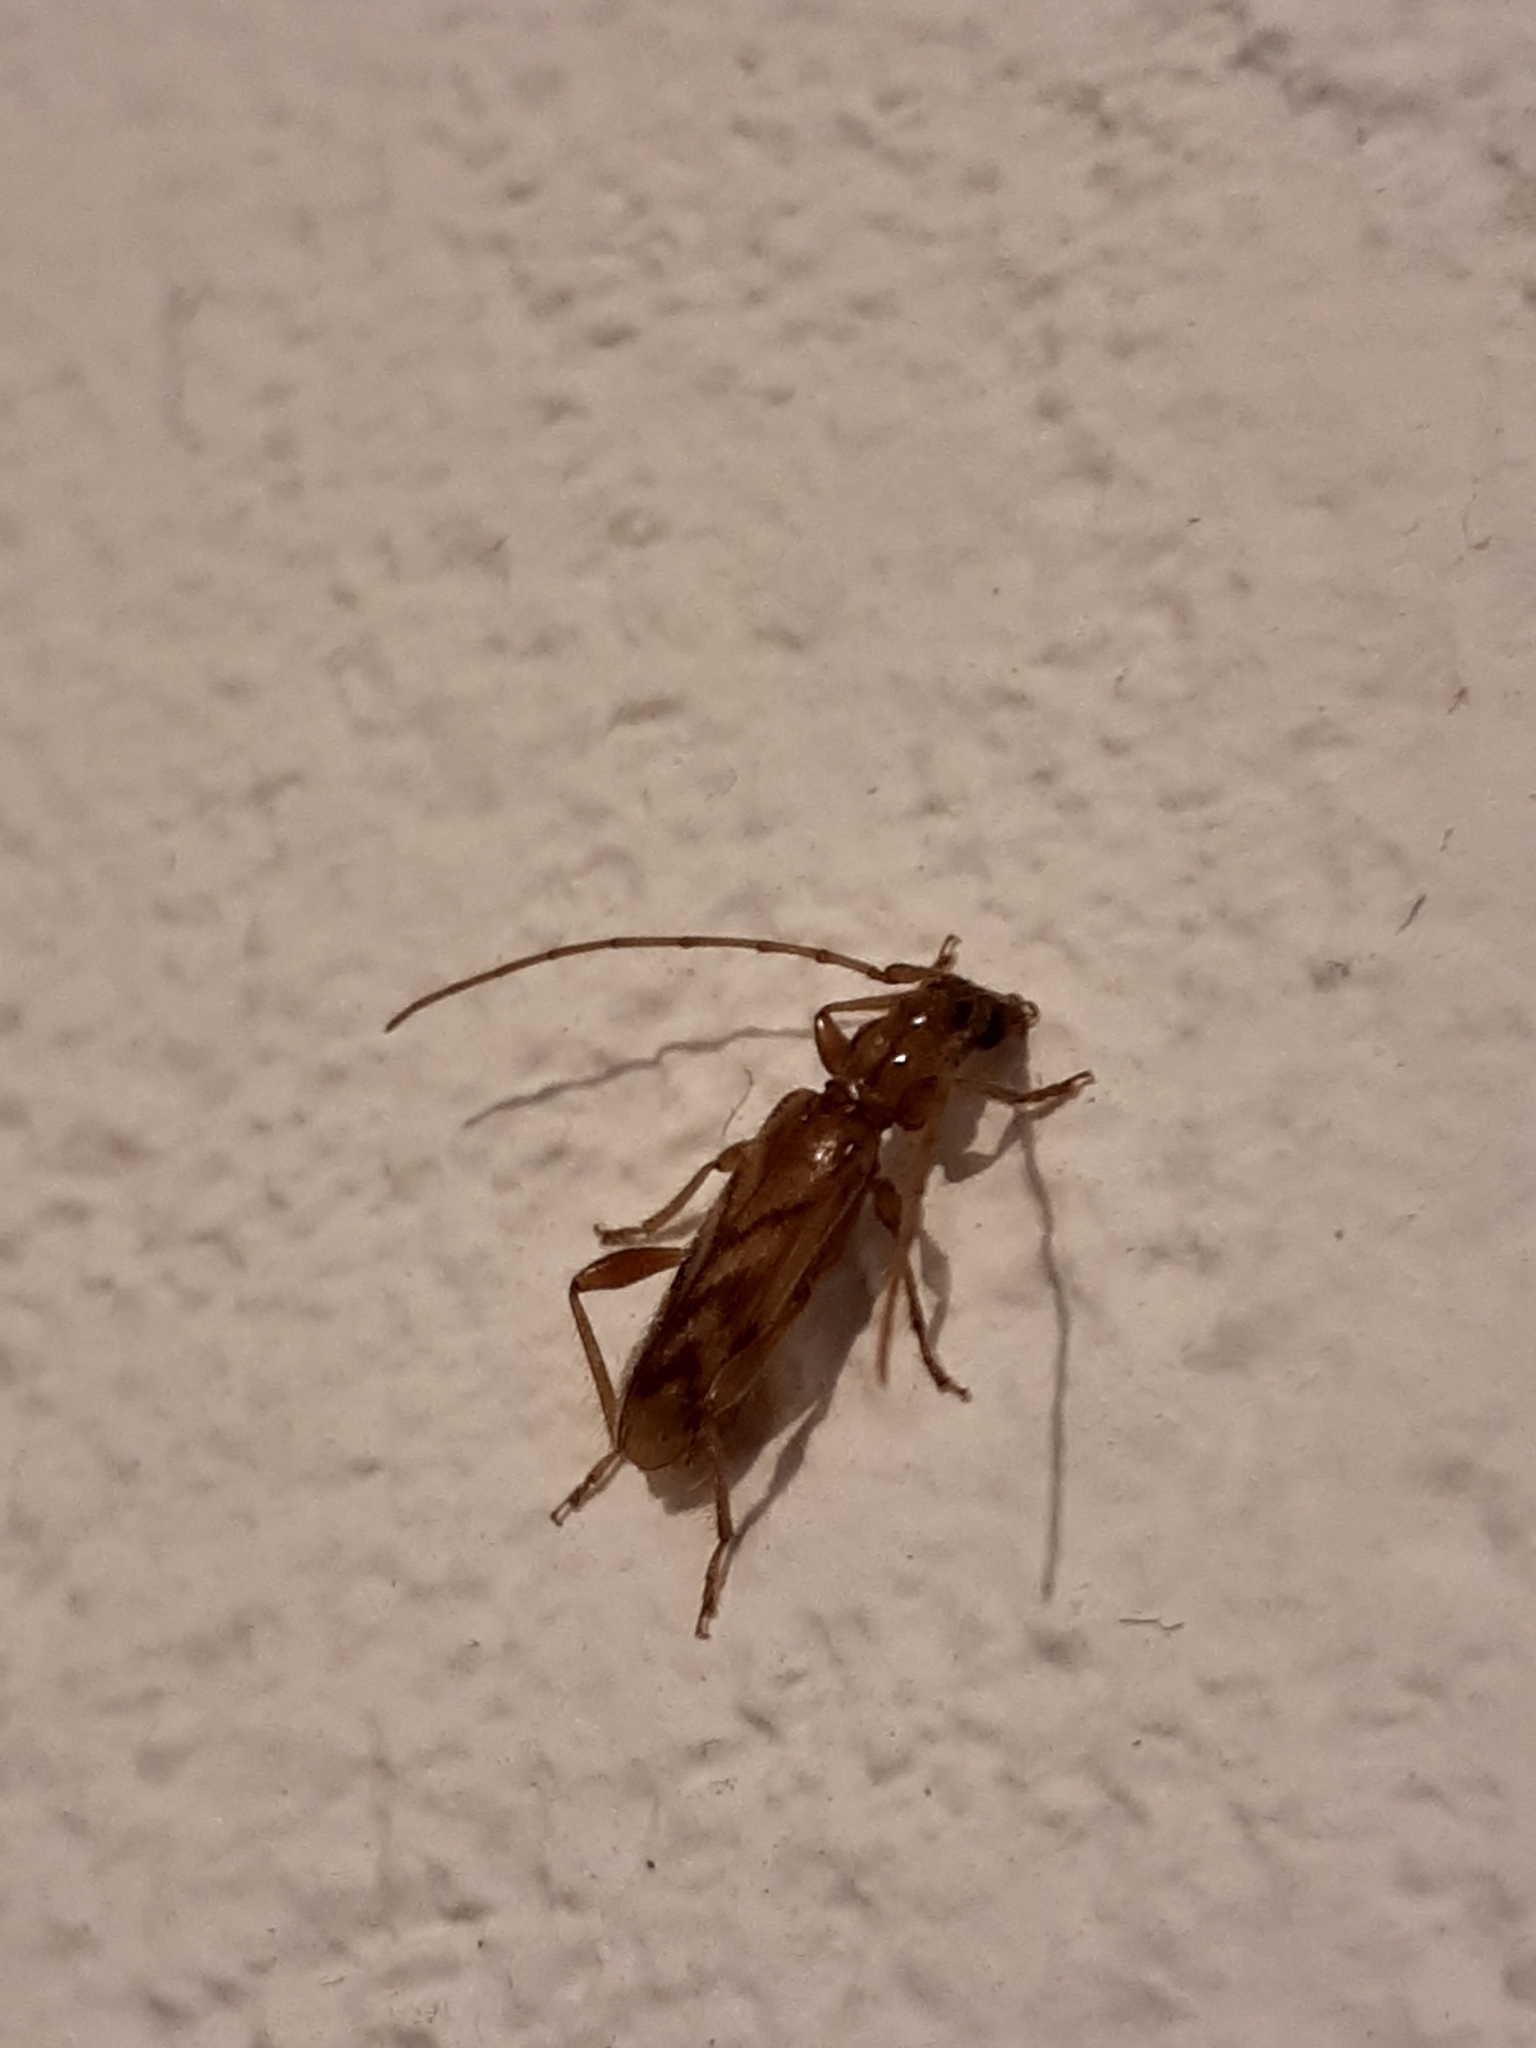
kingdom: Animalia
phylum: Arthropoda
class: Insecta
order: Coleoptera
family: Cerambycidae
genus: Obrium
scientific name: Obrium circunflexum
